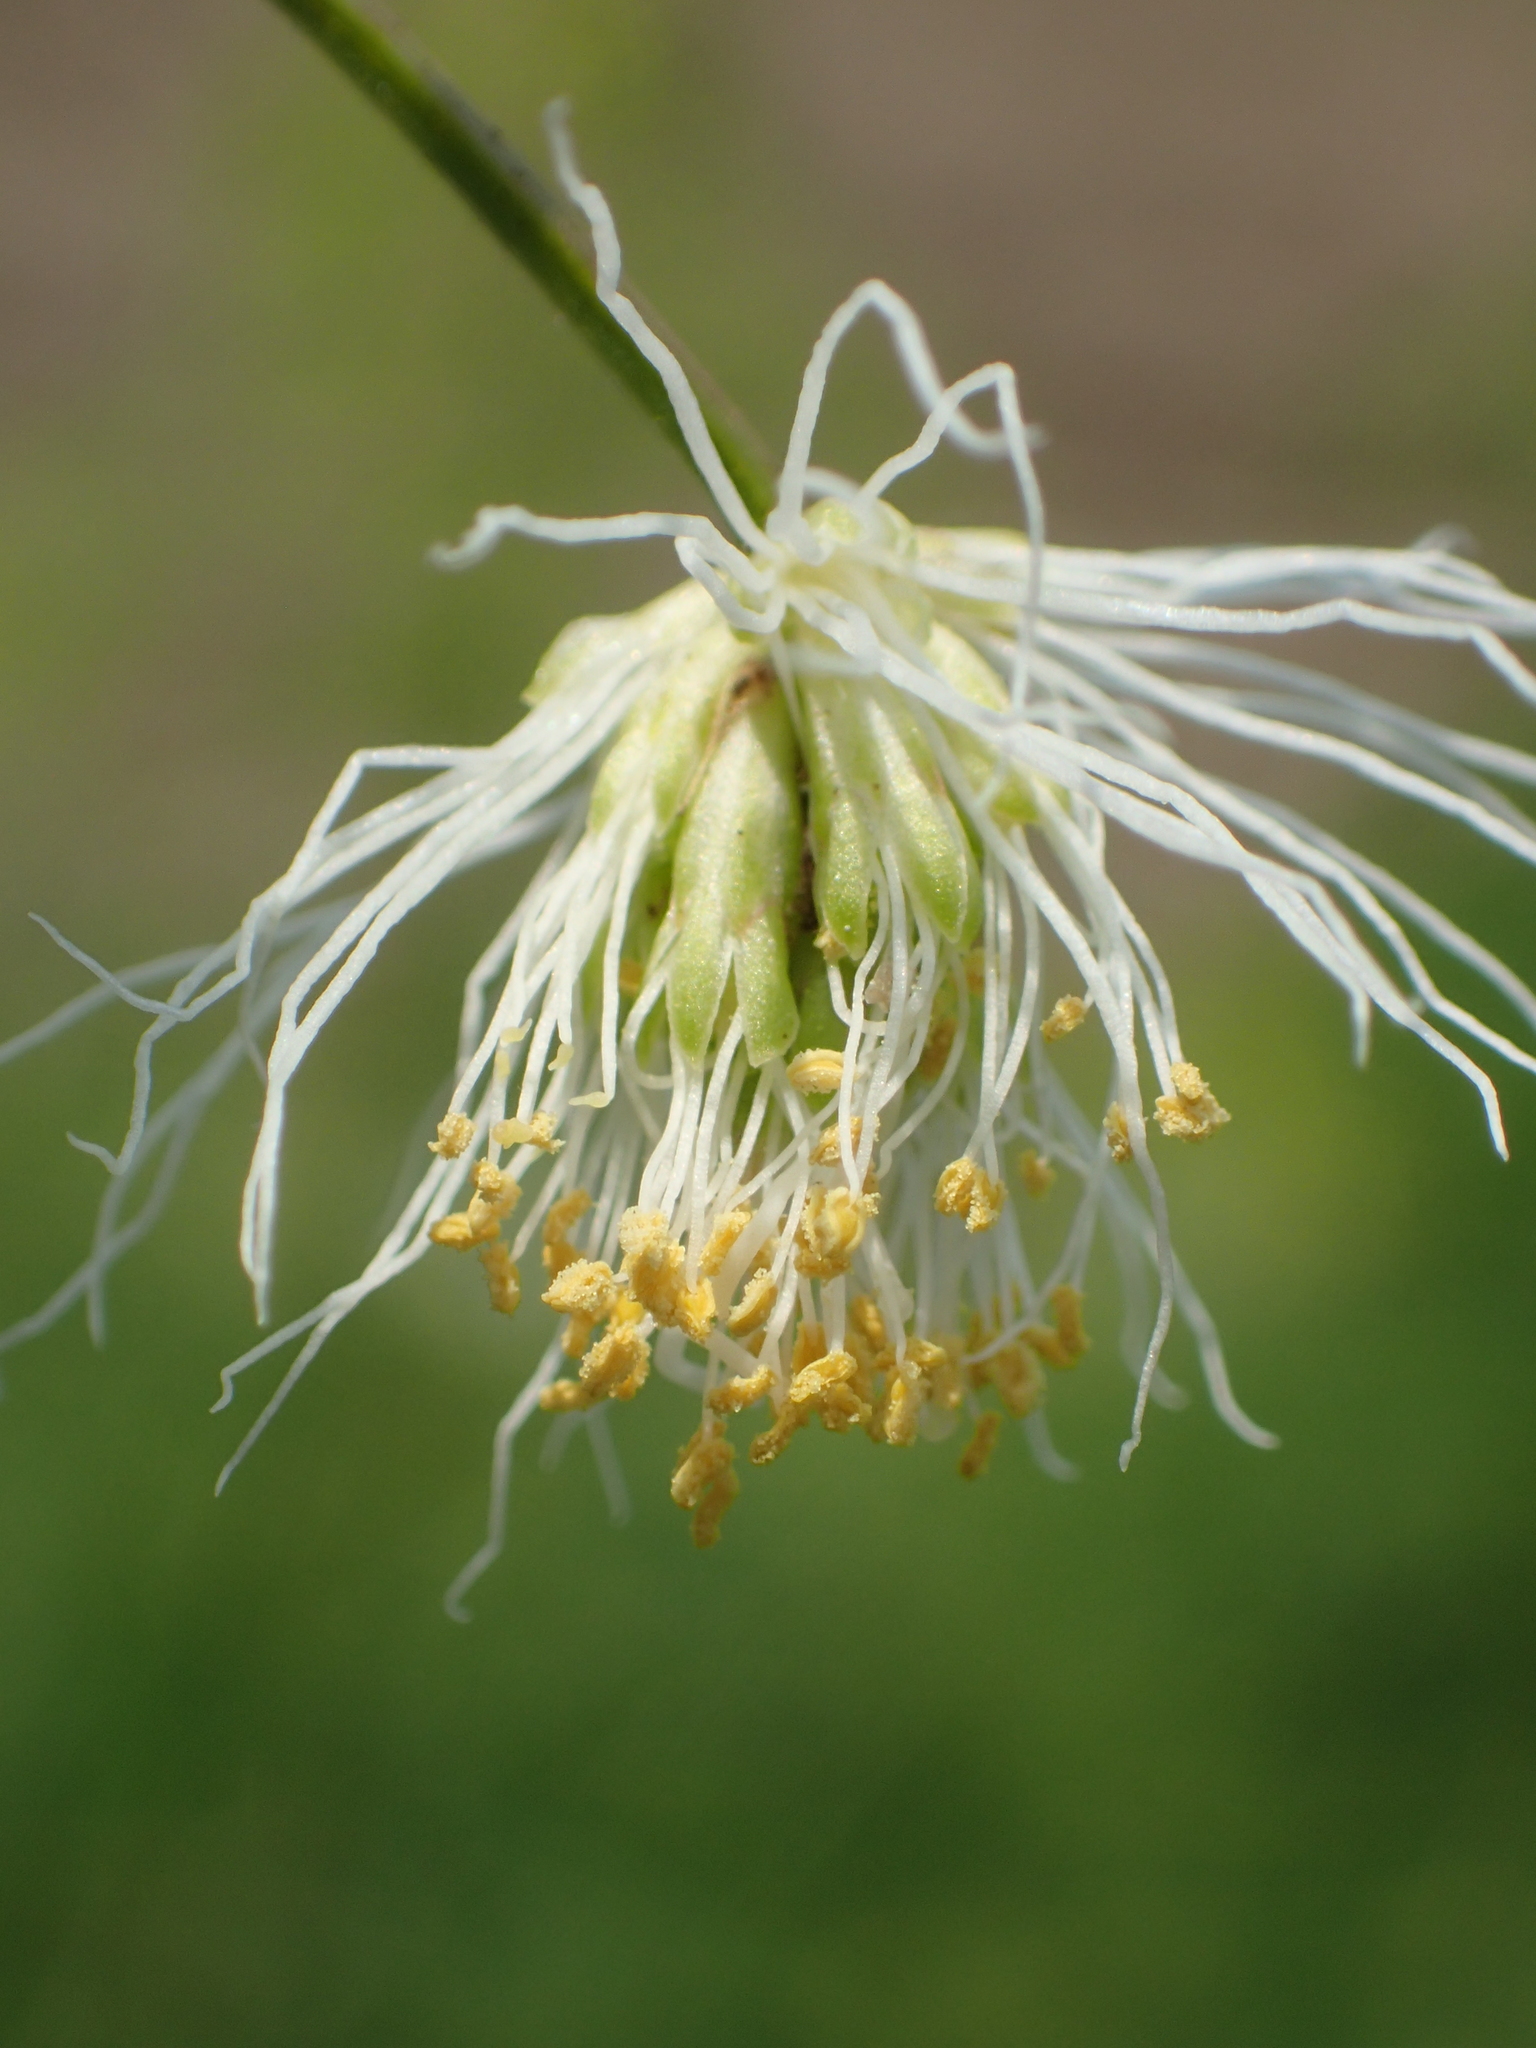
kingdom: Plantae
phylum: Tracheophyta
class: Magnoliopsida
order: Fabales
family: Fabaceae
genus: Desmanthus
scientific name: Desmanthus virgatus
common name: Wild tantan
